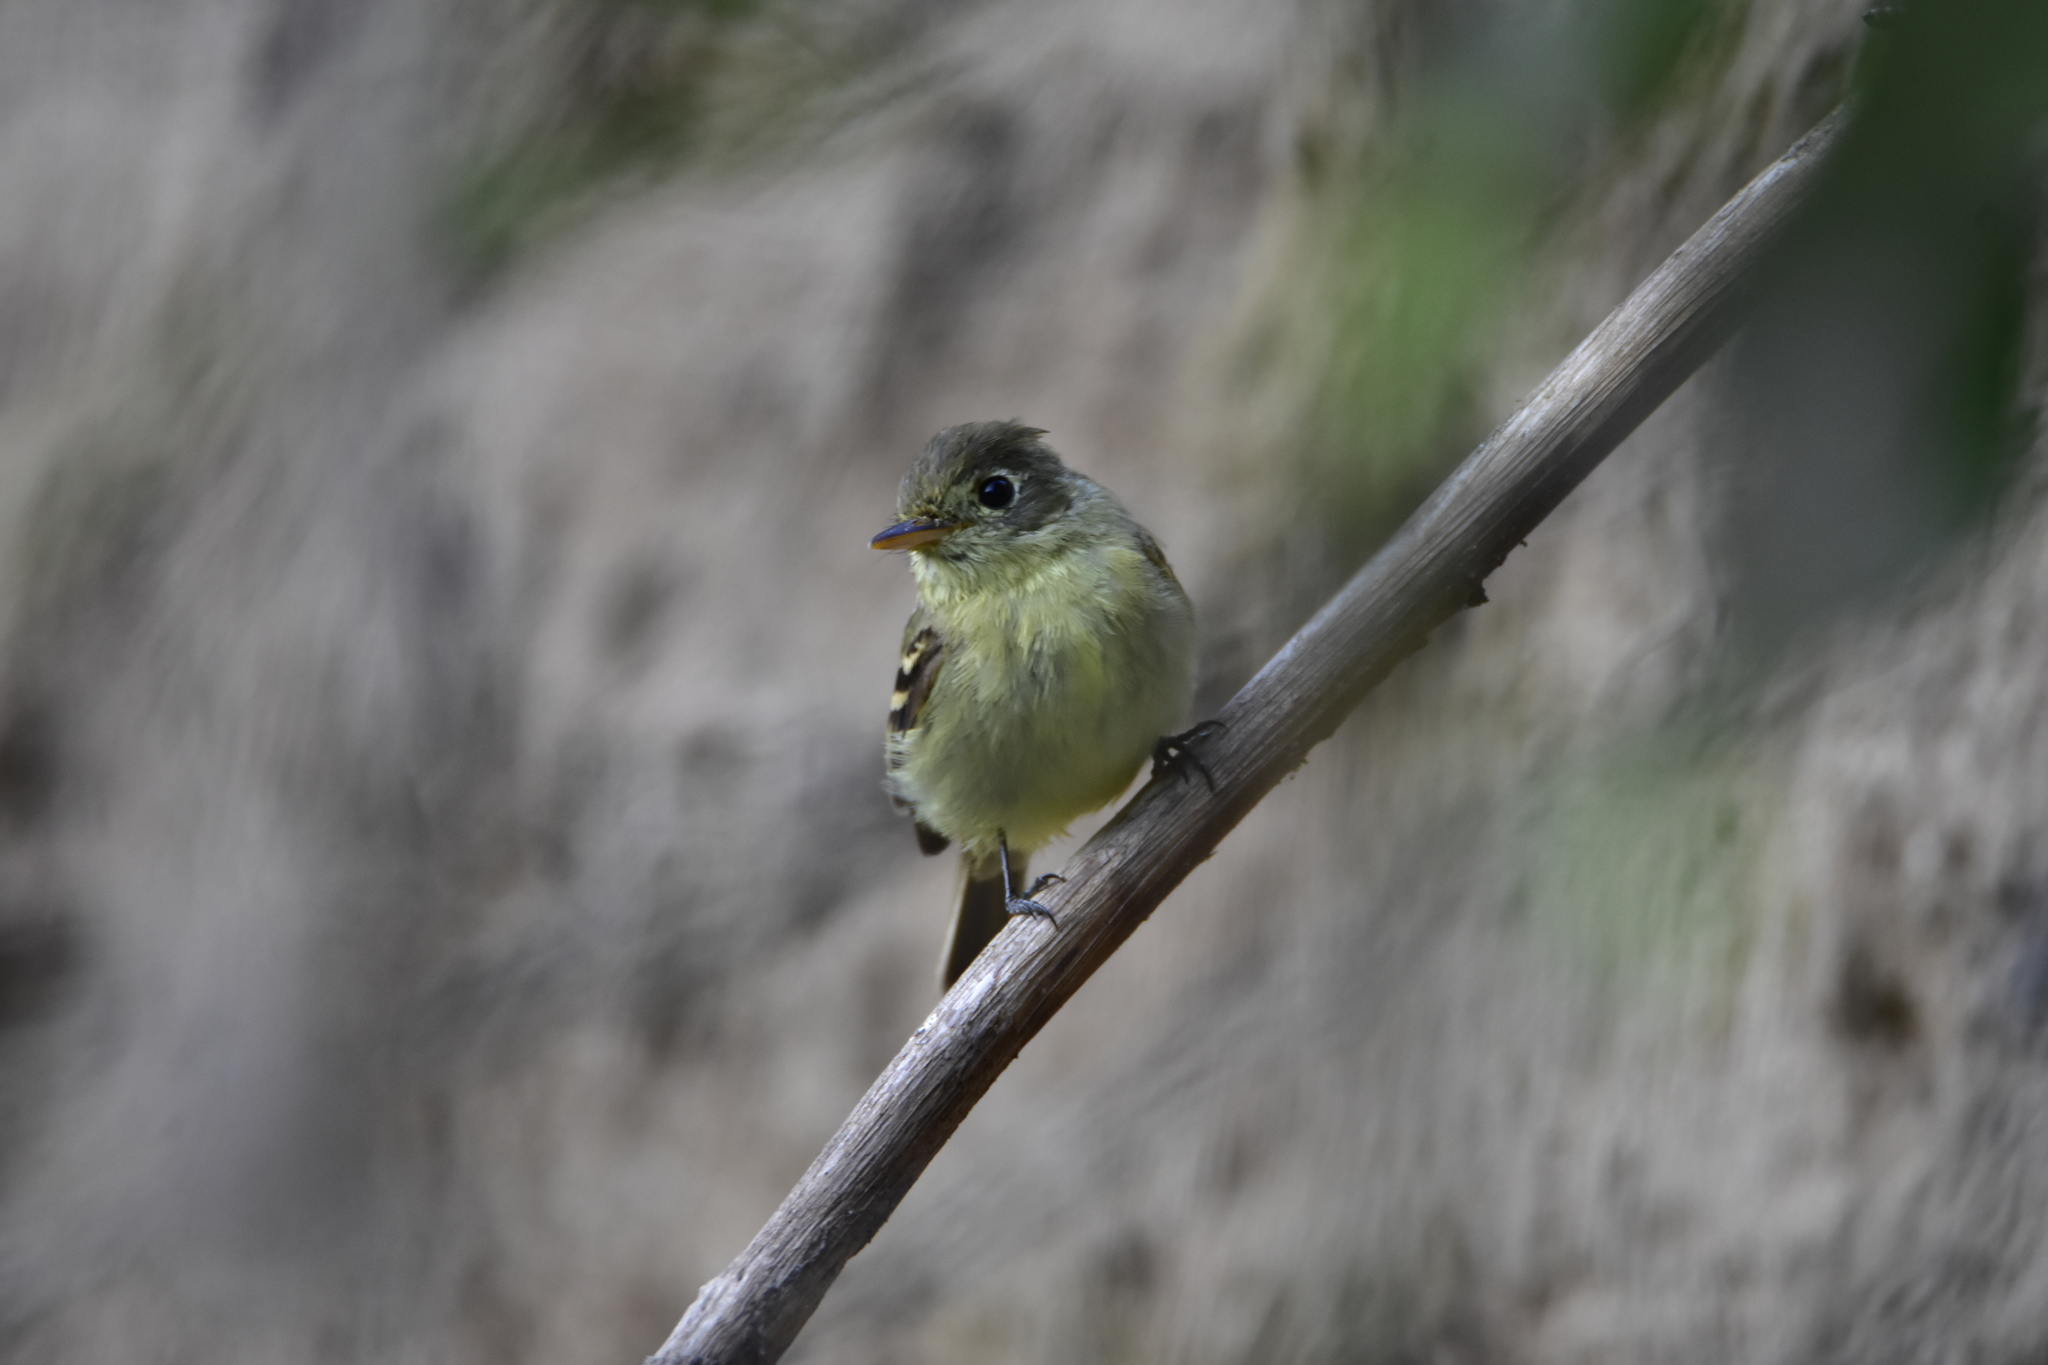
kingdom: Animalia
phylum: Chordata
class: Aves
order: Passeriformes
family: Tyrannidae
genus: Empidonax
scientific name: Empidonax difficilis
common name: Pacific-slope flycatcher
